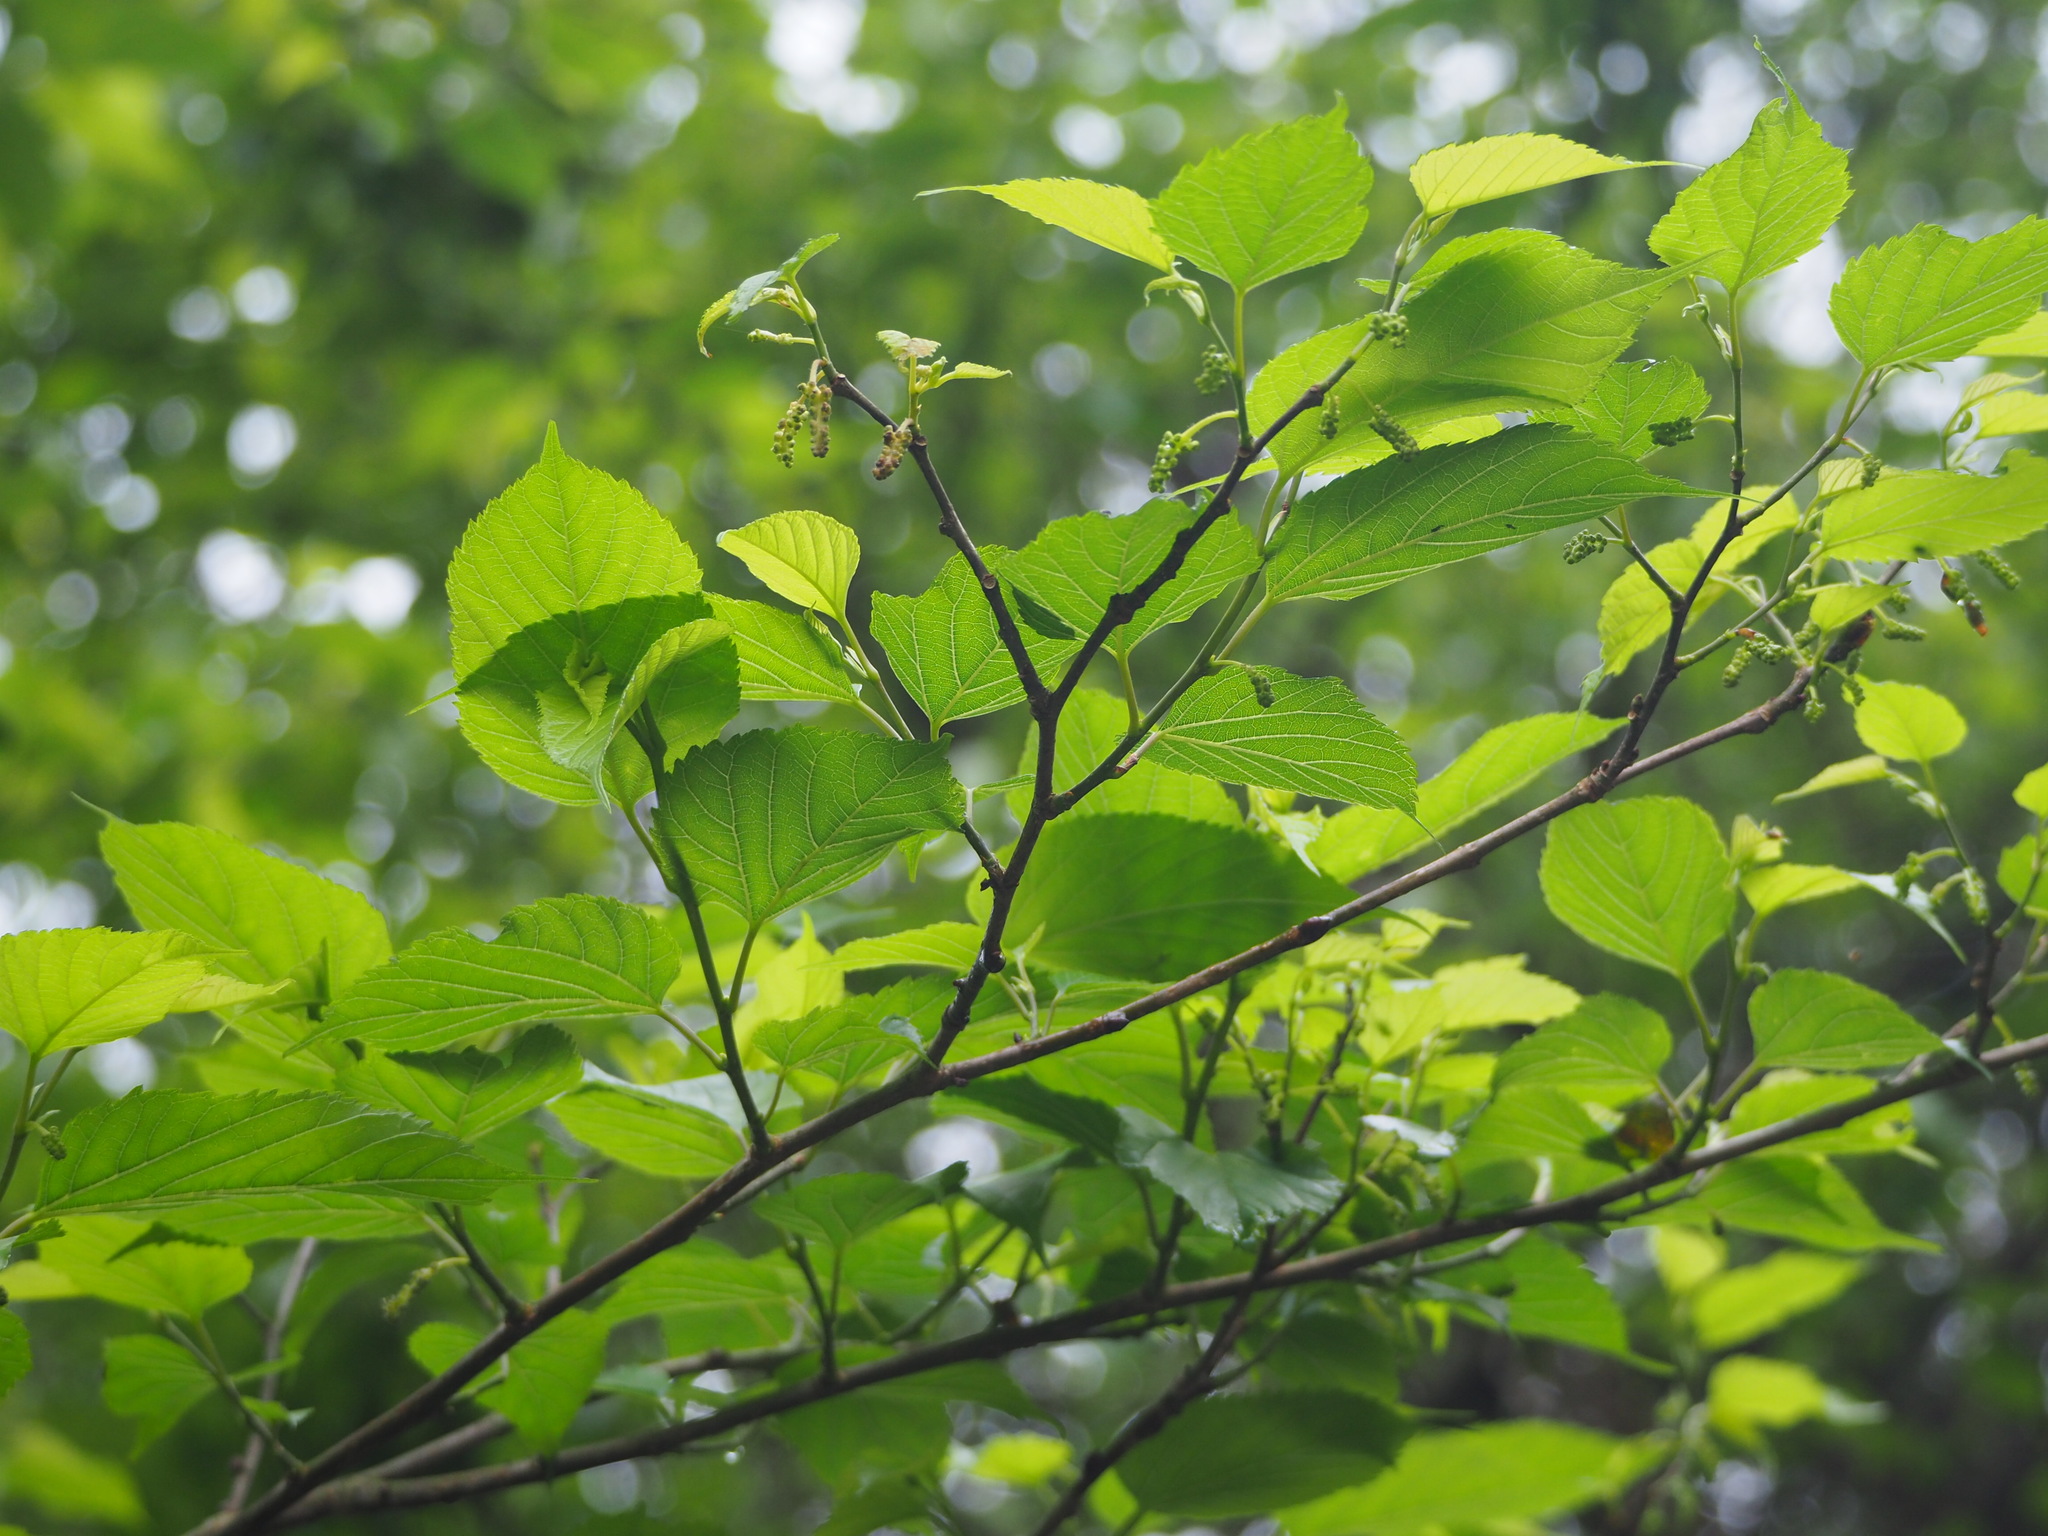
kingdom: Plantae
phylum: Tracheophyta
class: Magnoliopsida
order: Rosales
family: Moraceae
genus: Morus
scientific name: Morus indica
